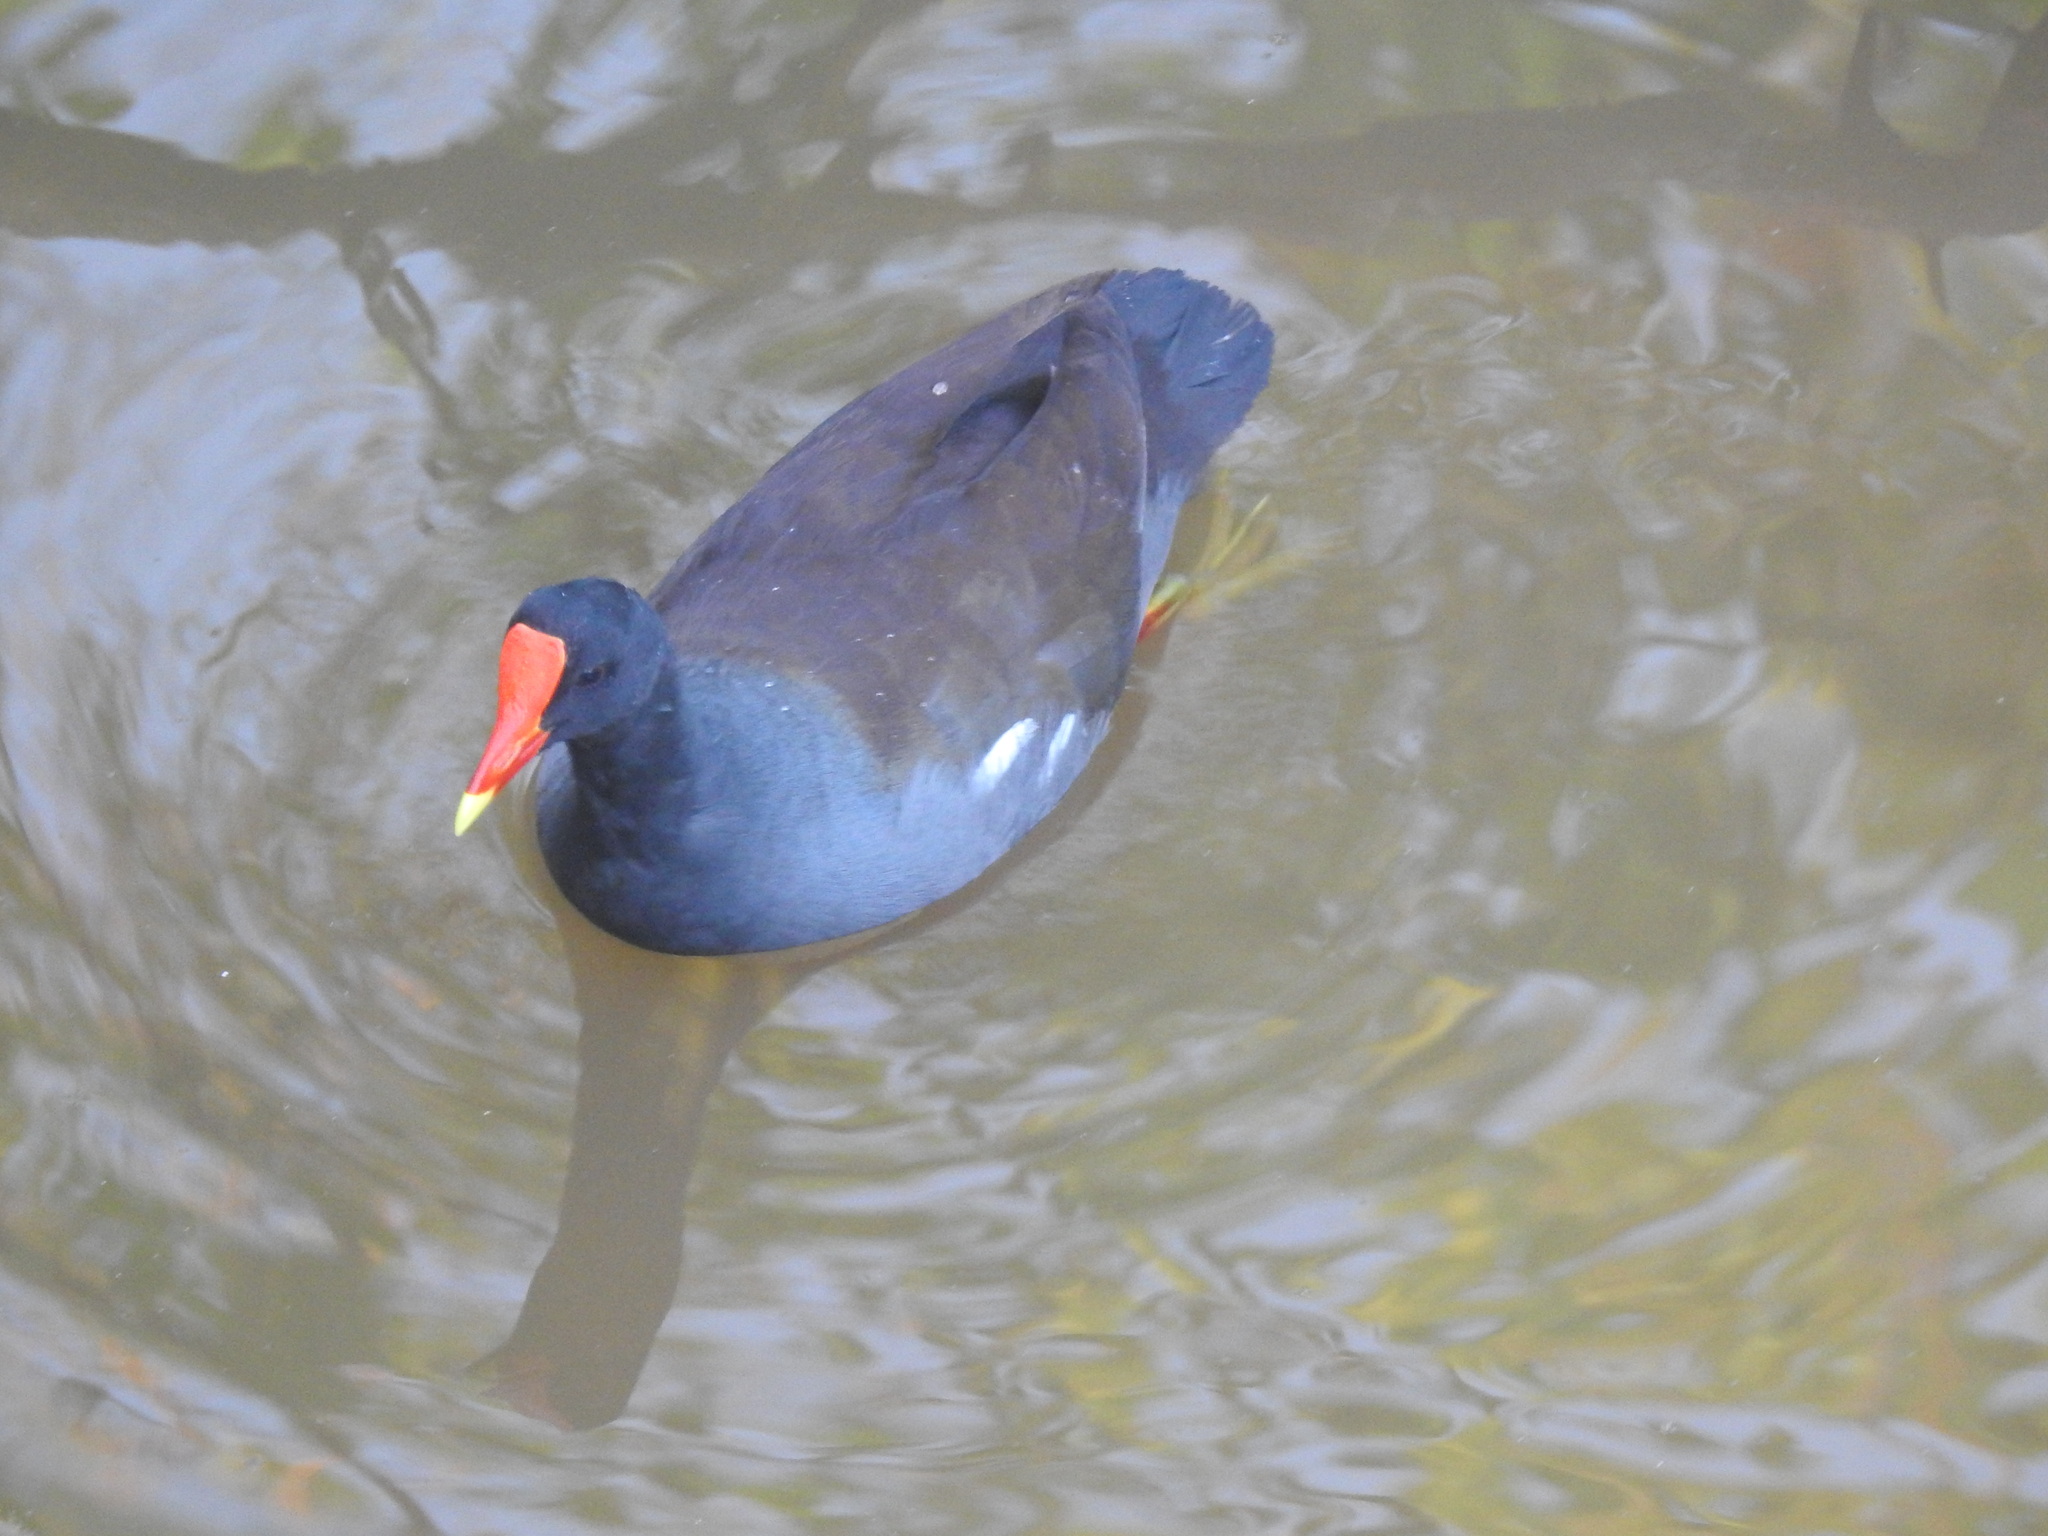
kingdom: Animalia
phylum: Chordata
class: Aves
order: Gruiformes
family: Rallidae
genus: Gallinula
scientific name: Gallinula chloropus
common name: Common moorhen
